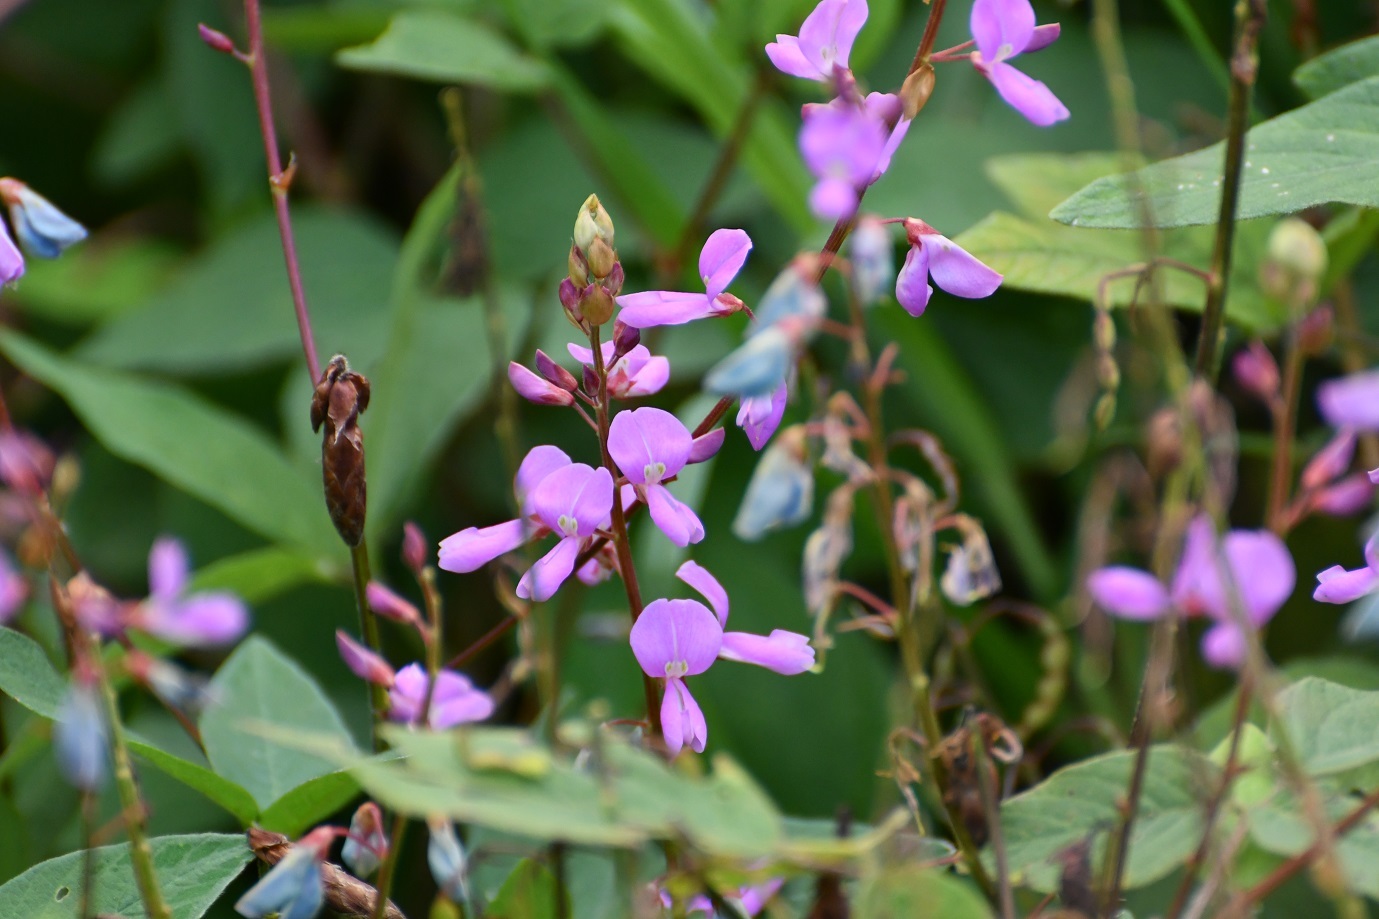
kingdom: Plantae
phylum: Tracheophyta
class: Magnoliopsida
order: Fabales
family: Fabaceae
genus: Desmodium
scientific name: Desmodium pringlei
